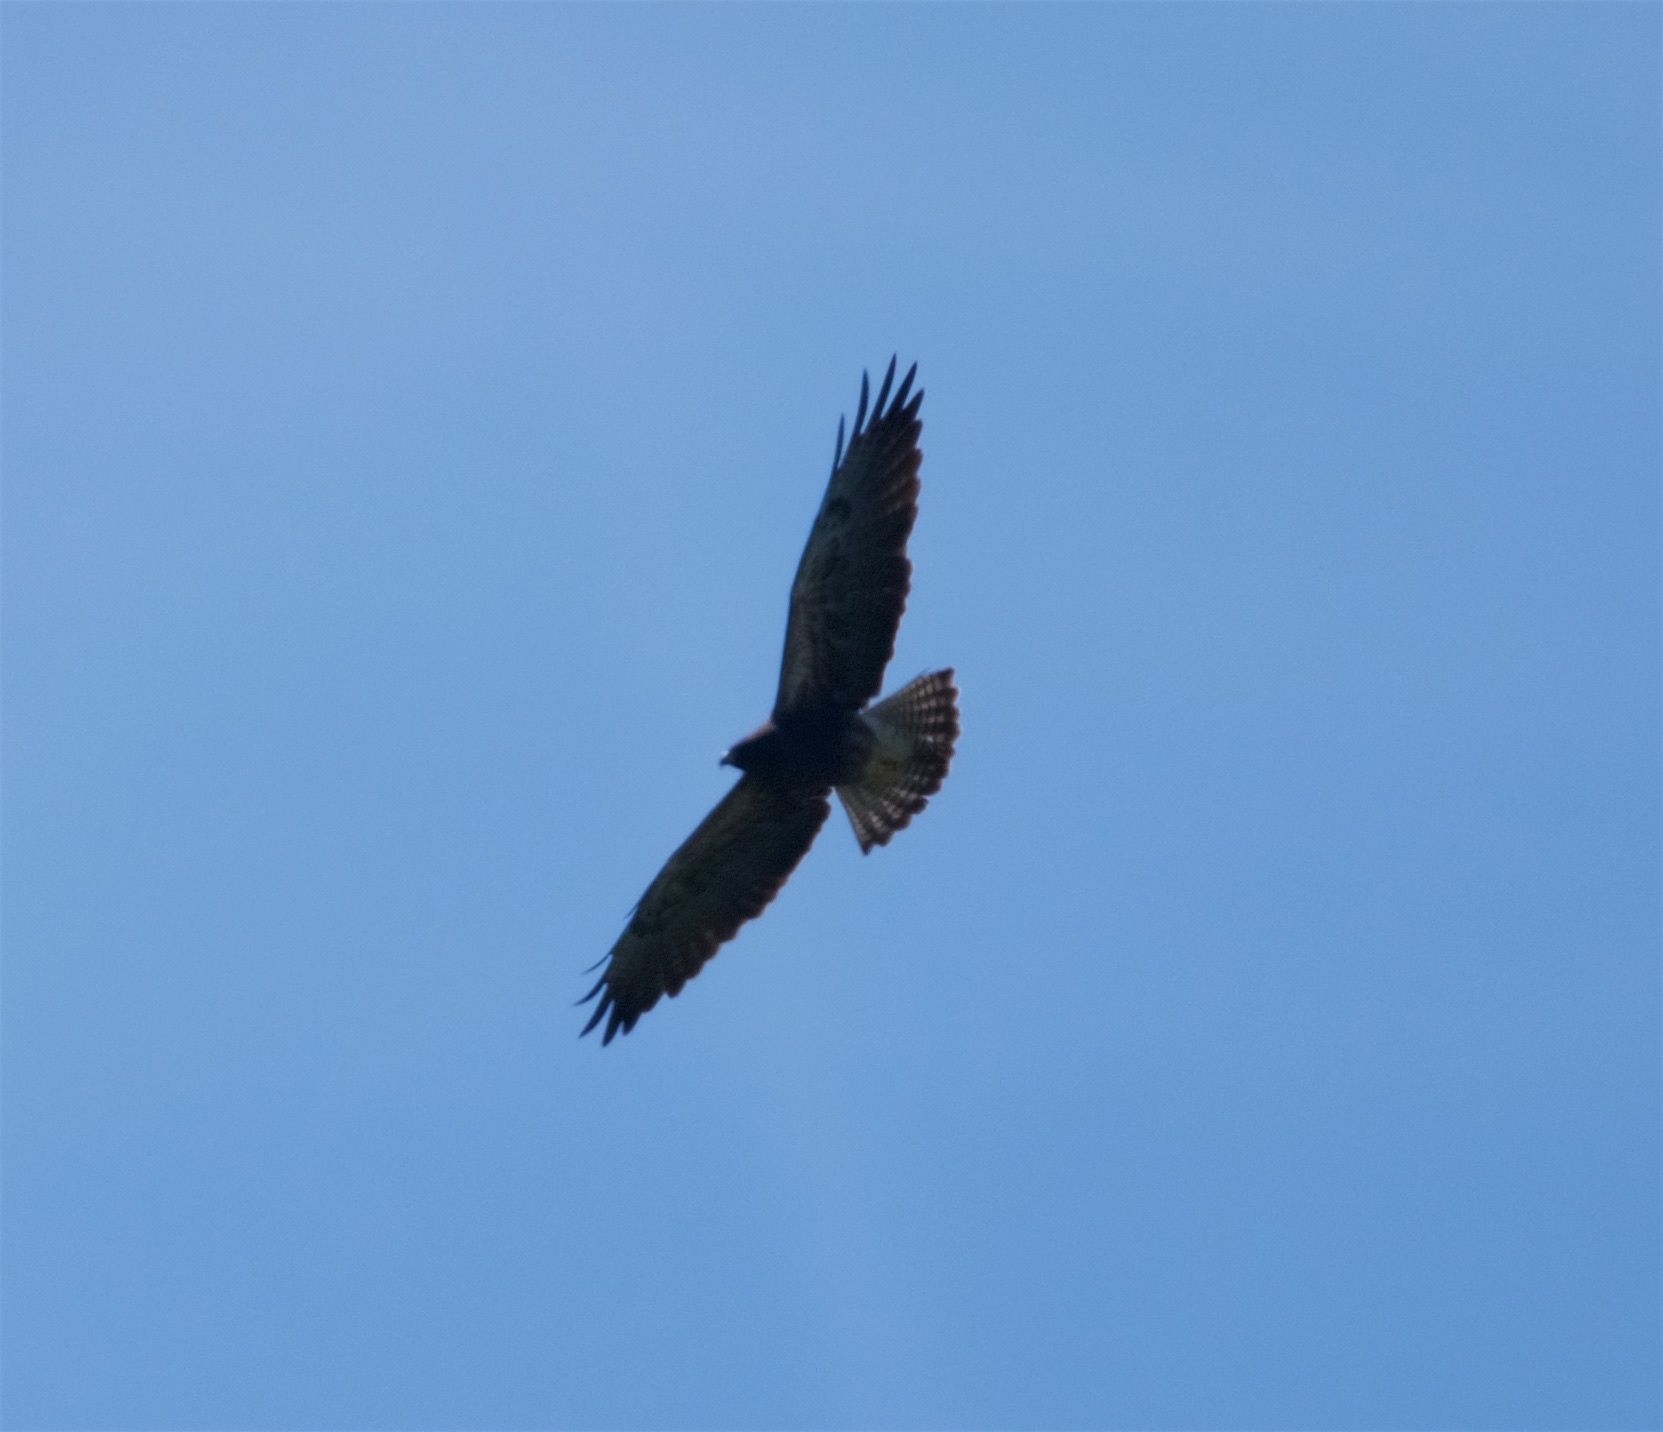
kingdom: Animalia
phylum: Chordata
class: Aves
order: Accipitriformes
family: Accipitridae
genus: Buteo
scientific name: Buteo swainsoni
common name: Swainson's hawk
